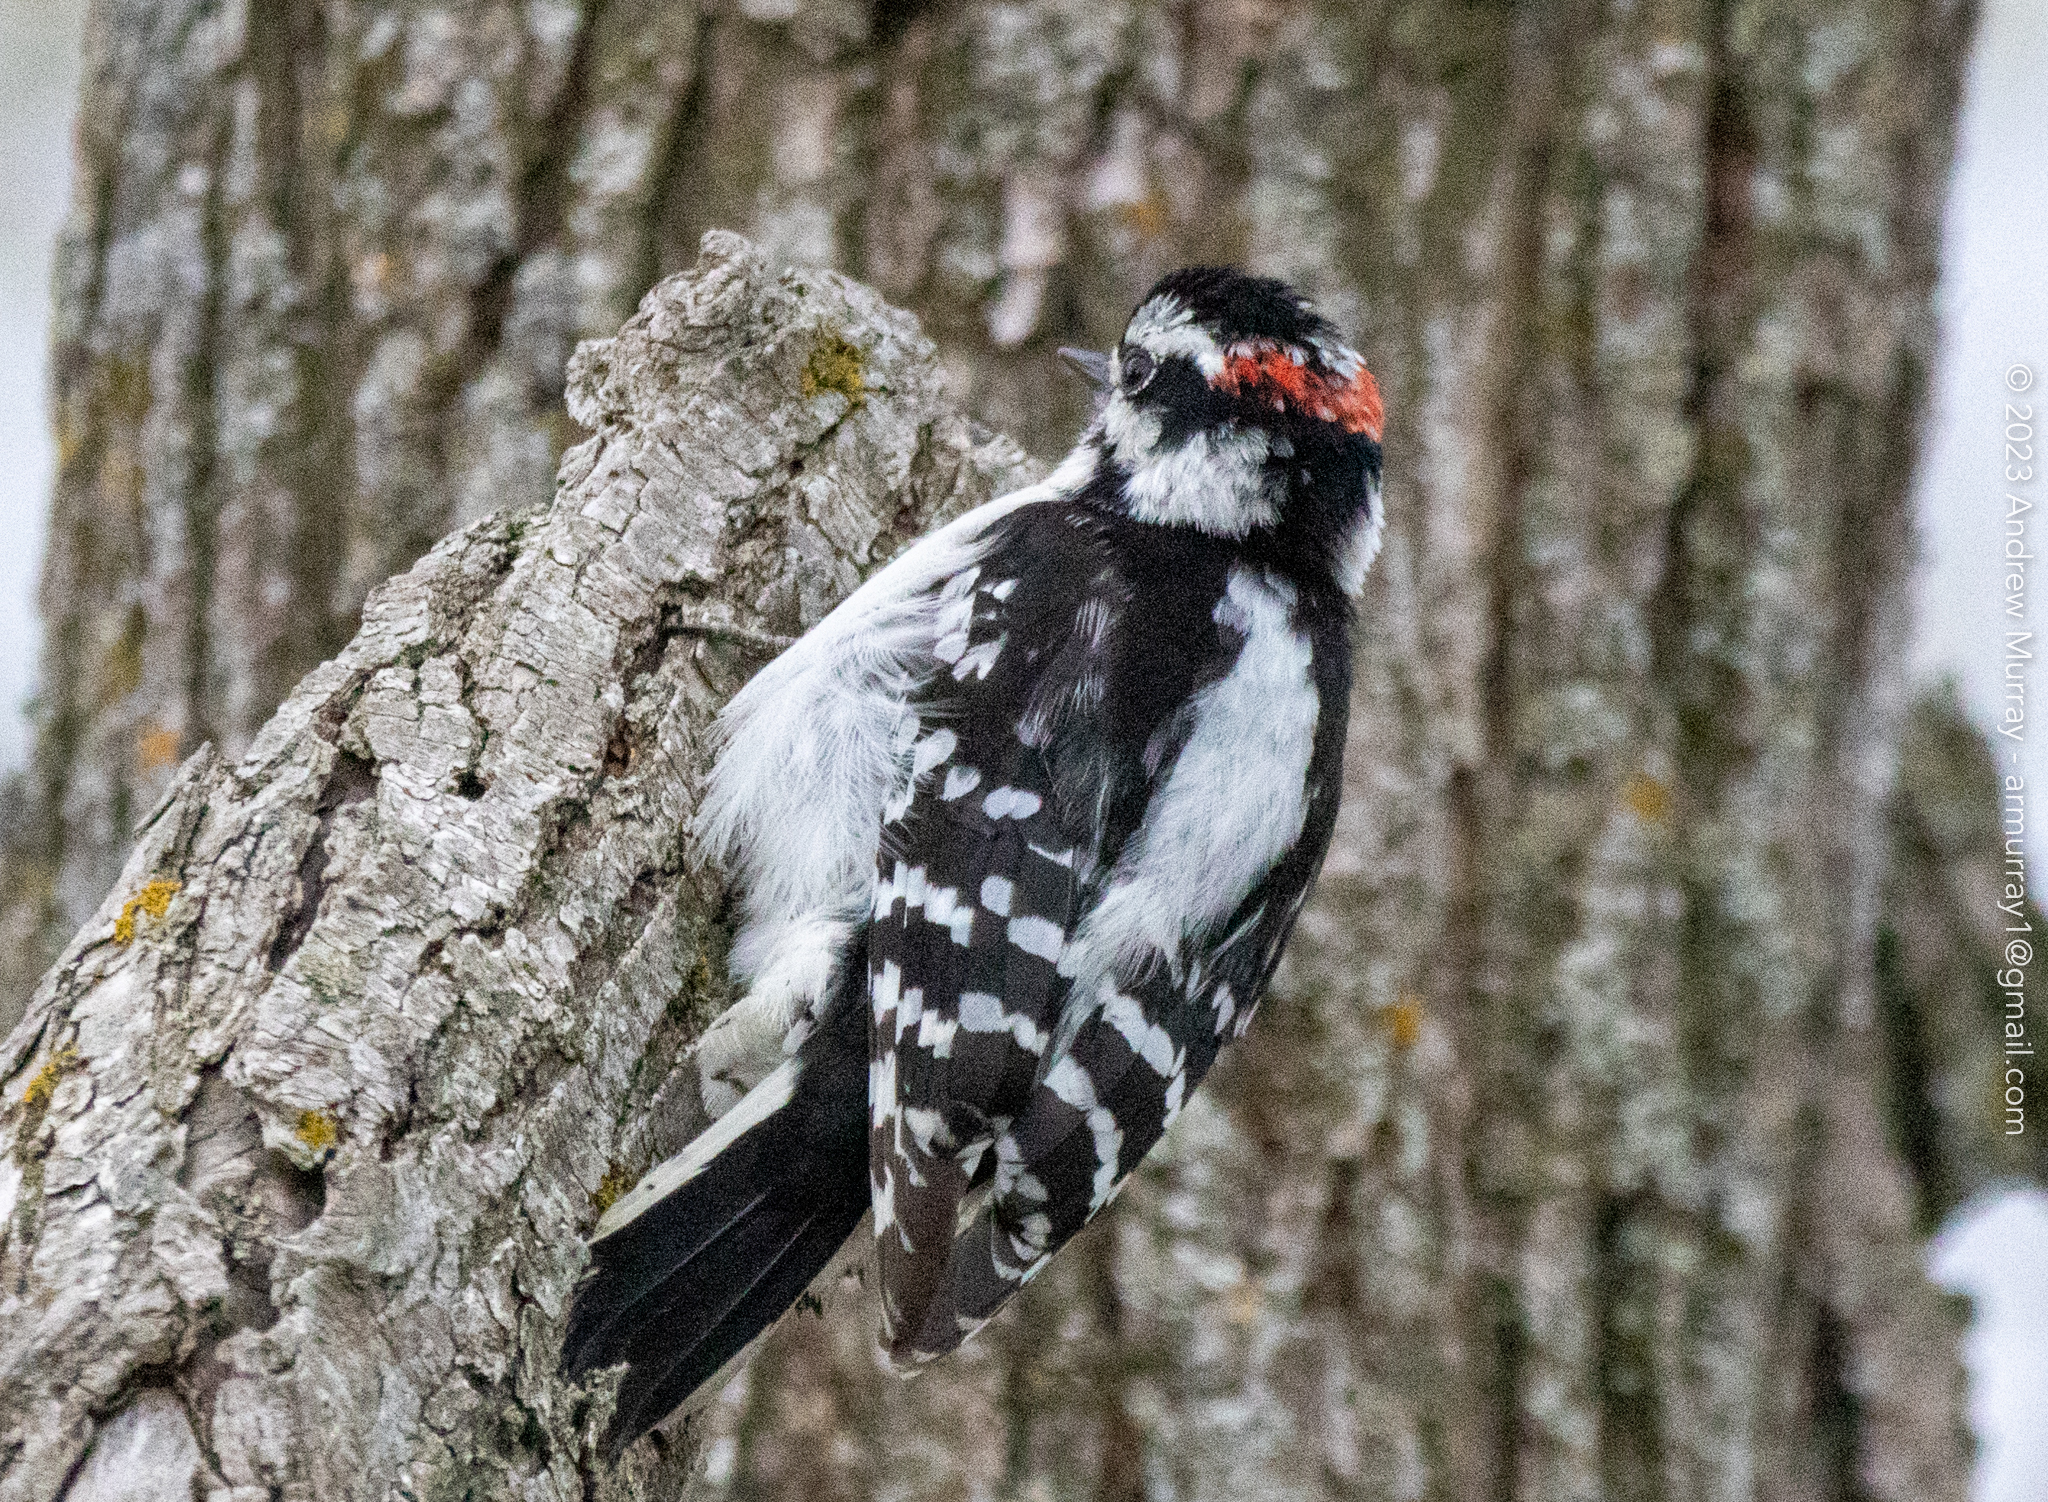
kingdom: Animalia
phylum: Chordata
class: Aves
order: Piciformes
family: Picidae
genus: Dryobates
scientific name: Dryobates pubescens
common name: Downy woodpecker
